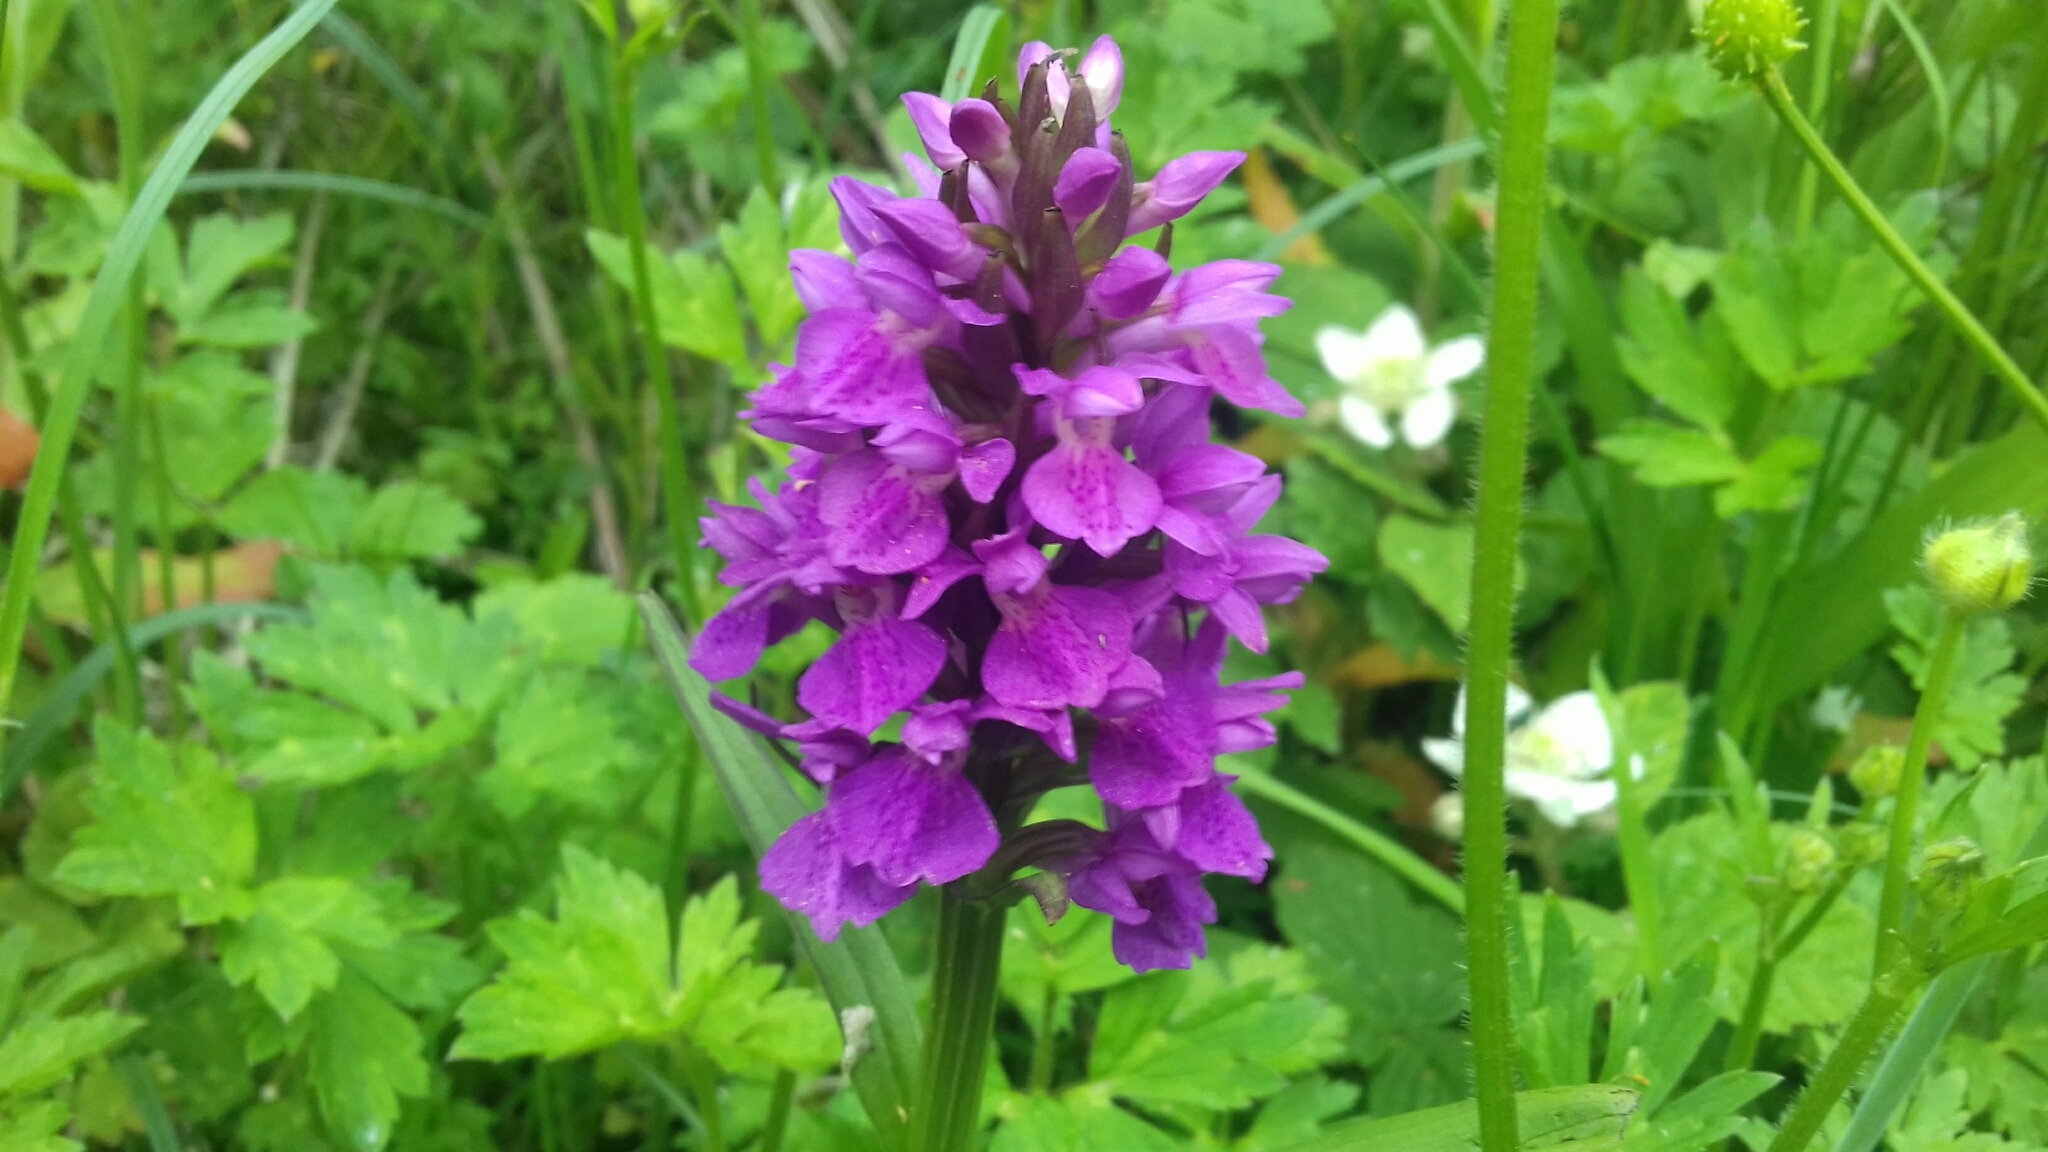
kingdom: Plantae
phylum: Tracheophyta
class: Liliopsida
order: Asparagales
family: Orchidaceae
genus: Dactylorhiza
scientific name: Dactylorhiza majalis
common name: Marsh orchid
